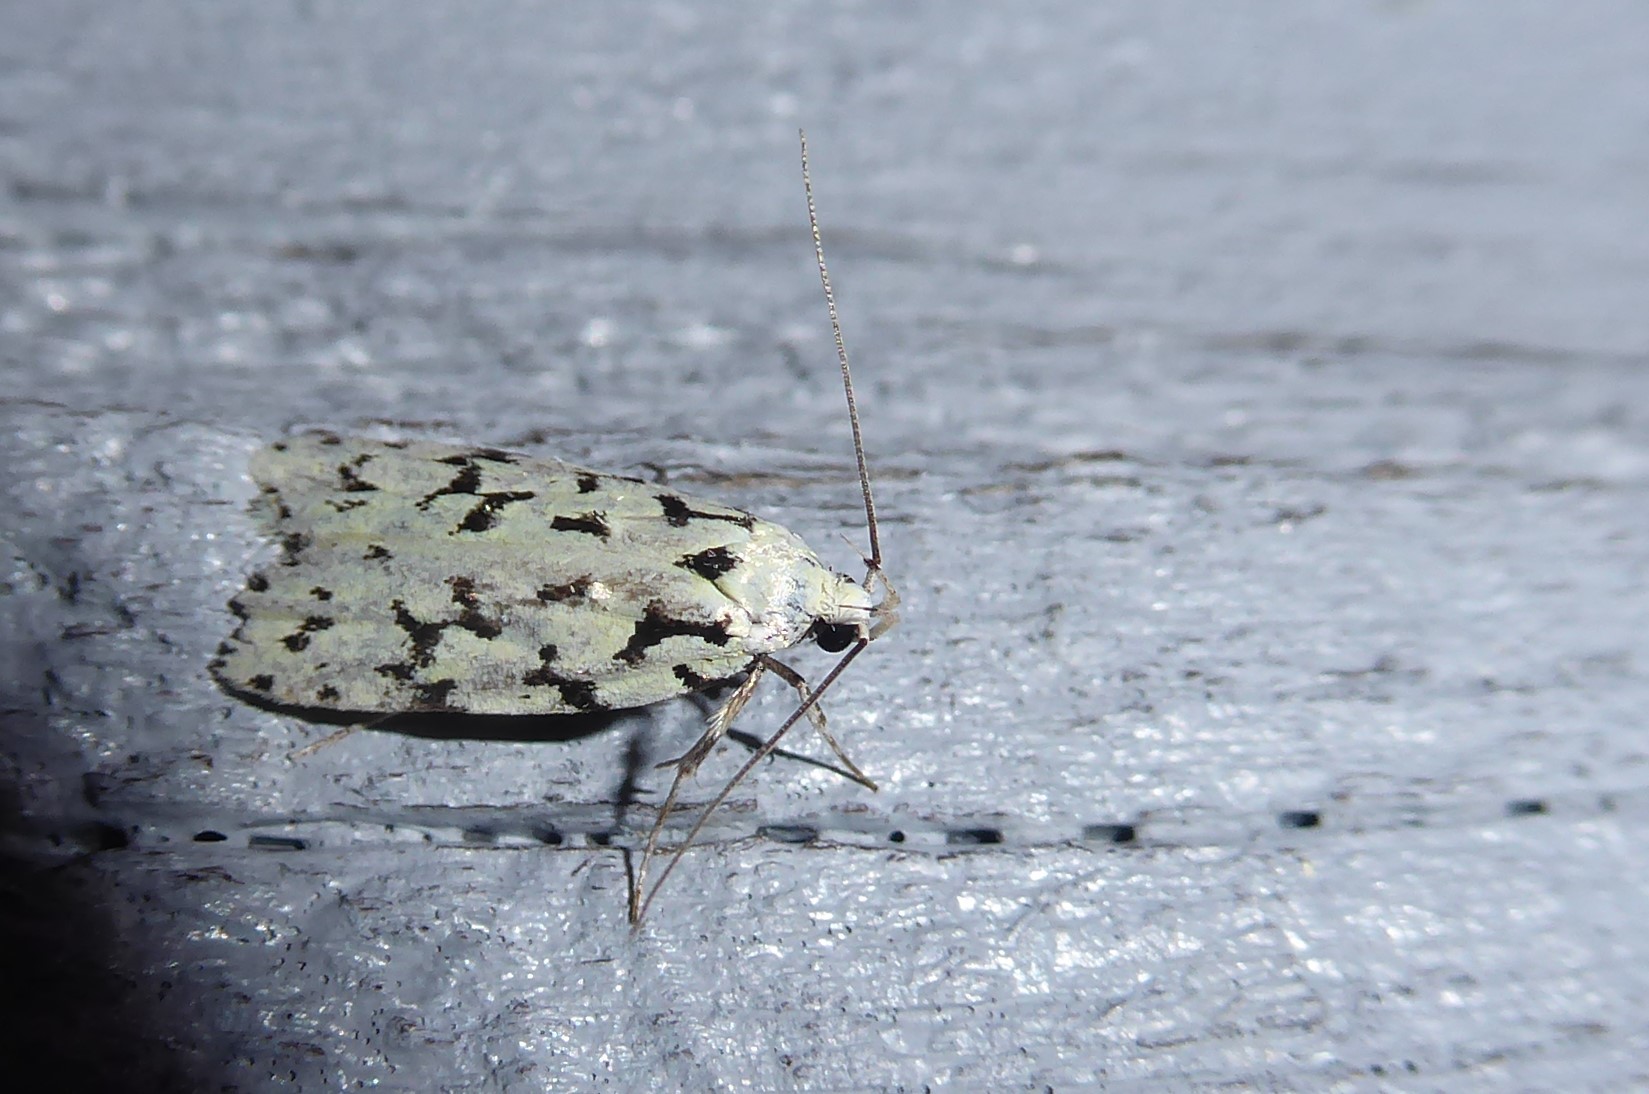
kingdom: Animalia
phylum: Arthropoda
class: Insecta
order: Lepidoptera
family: Oecophoridae
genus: Izatha
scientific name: Izatha huttoni
